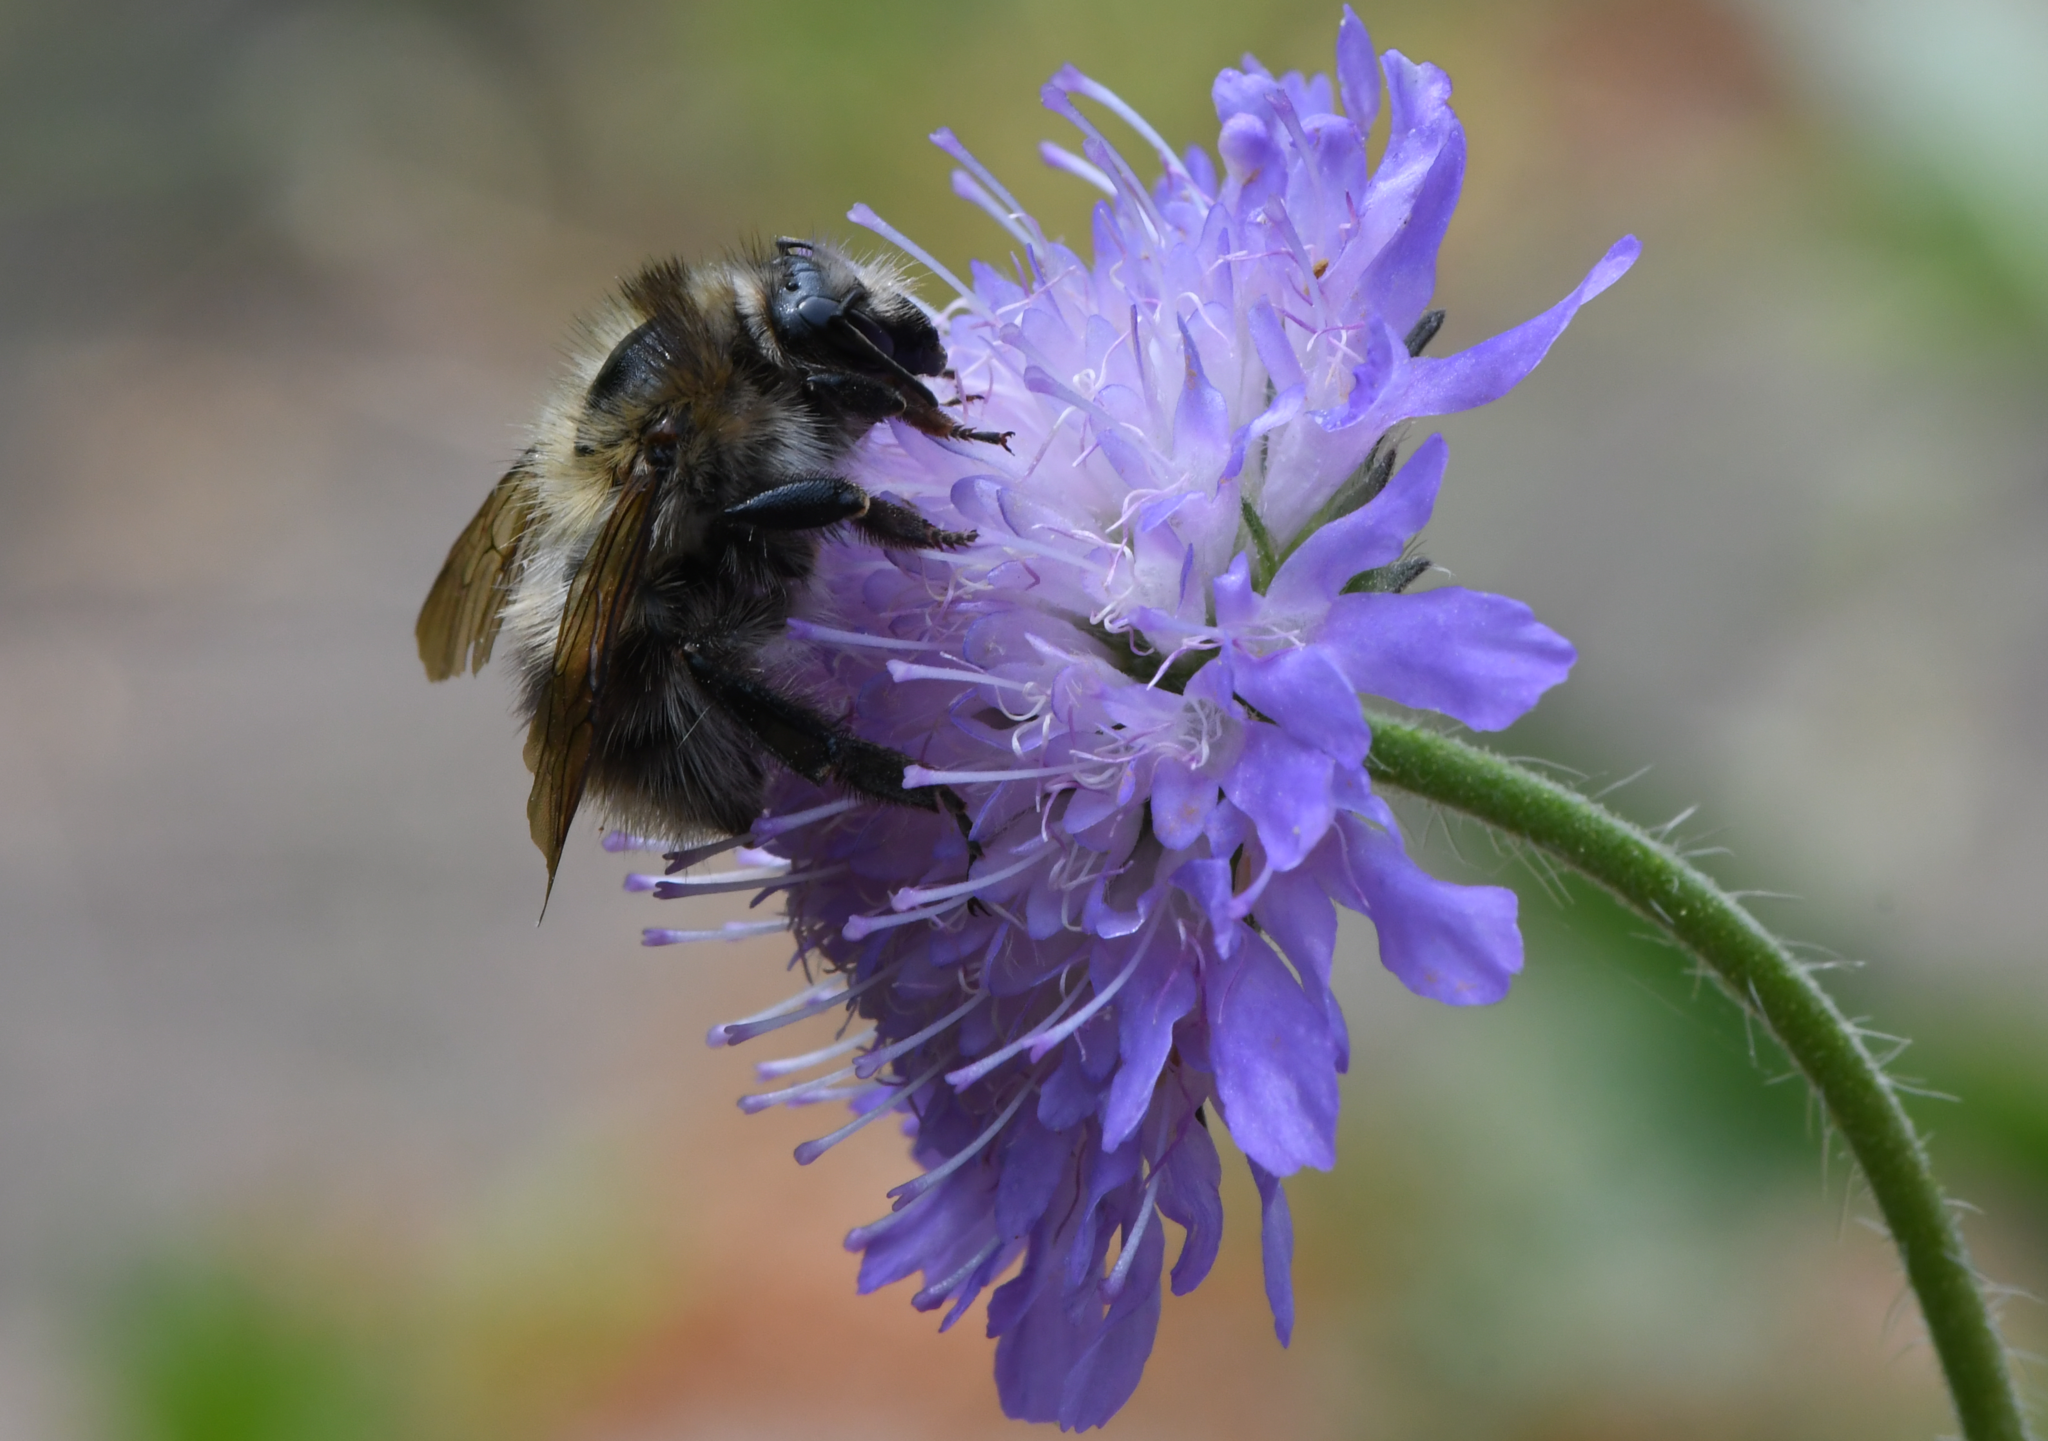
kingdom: Animalia
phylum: Arthropoda
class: Insecta
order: Hymenoptera
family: Apidae
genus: Bombus
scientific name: Bombus pascuorum
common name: Common carder bee
